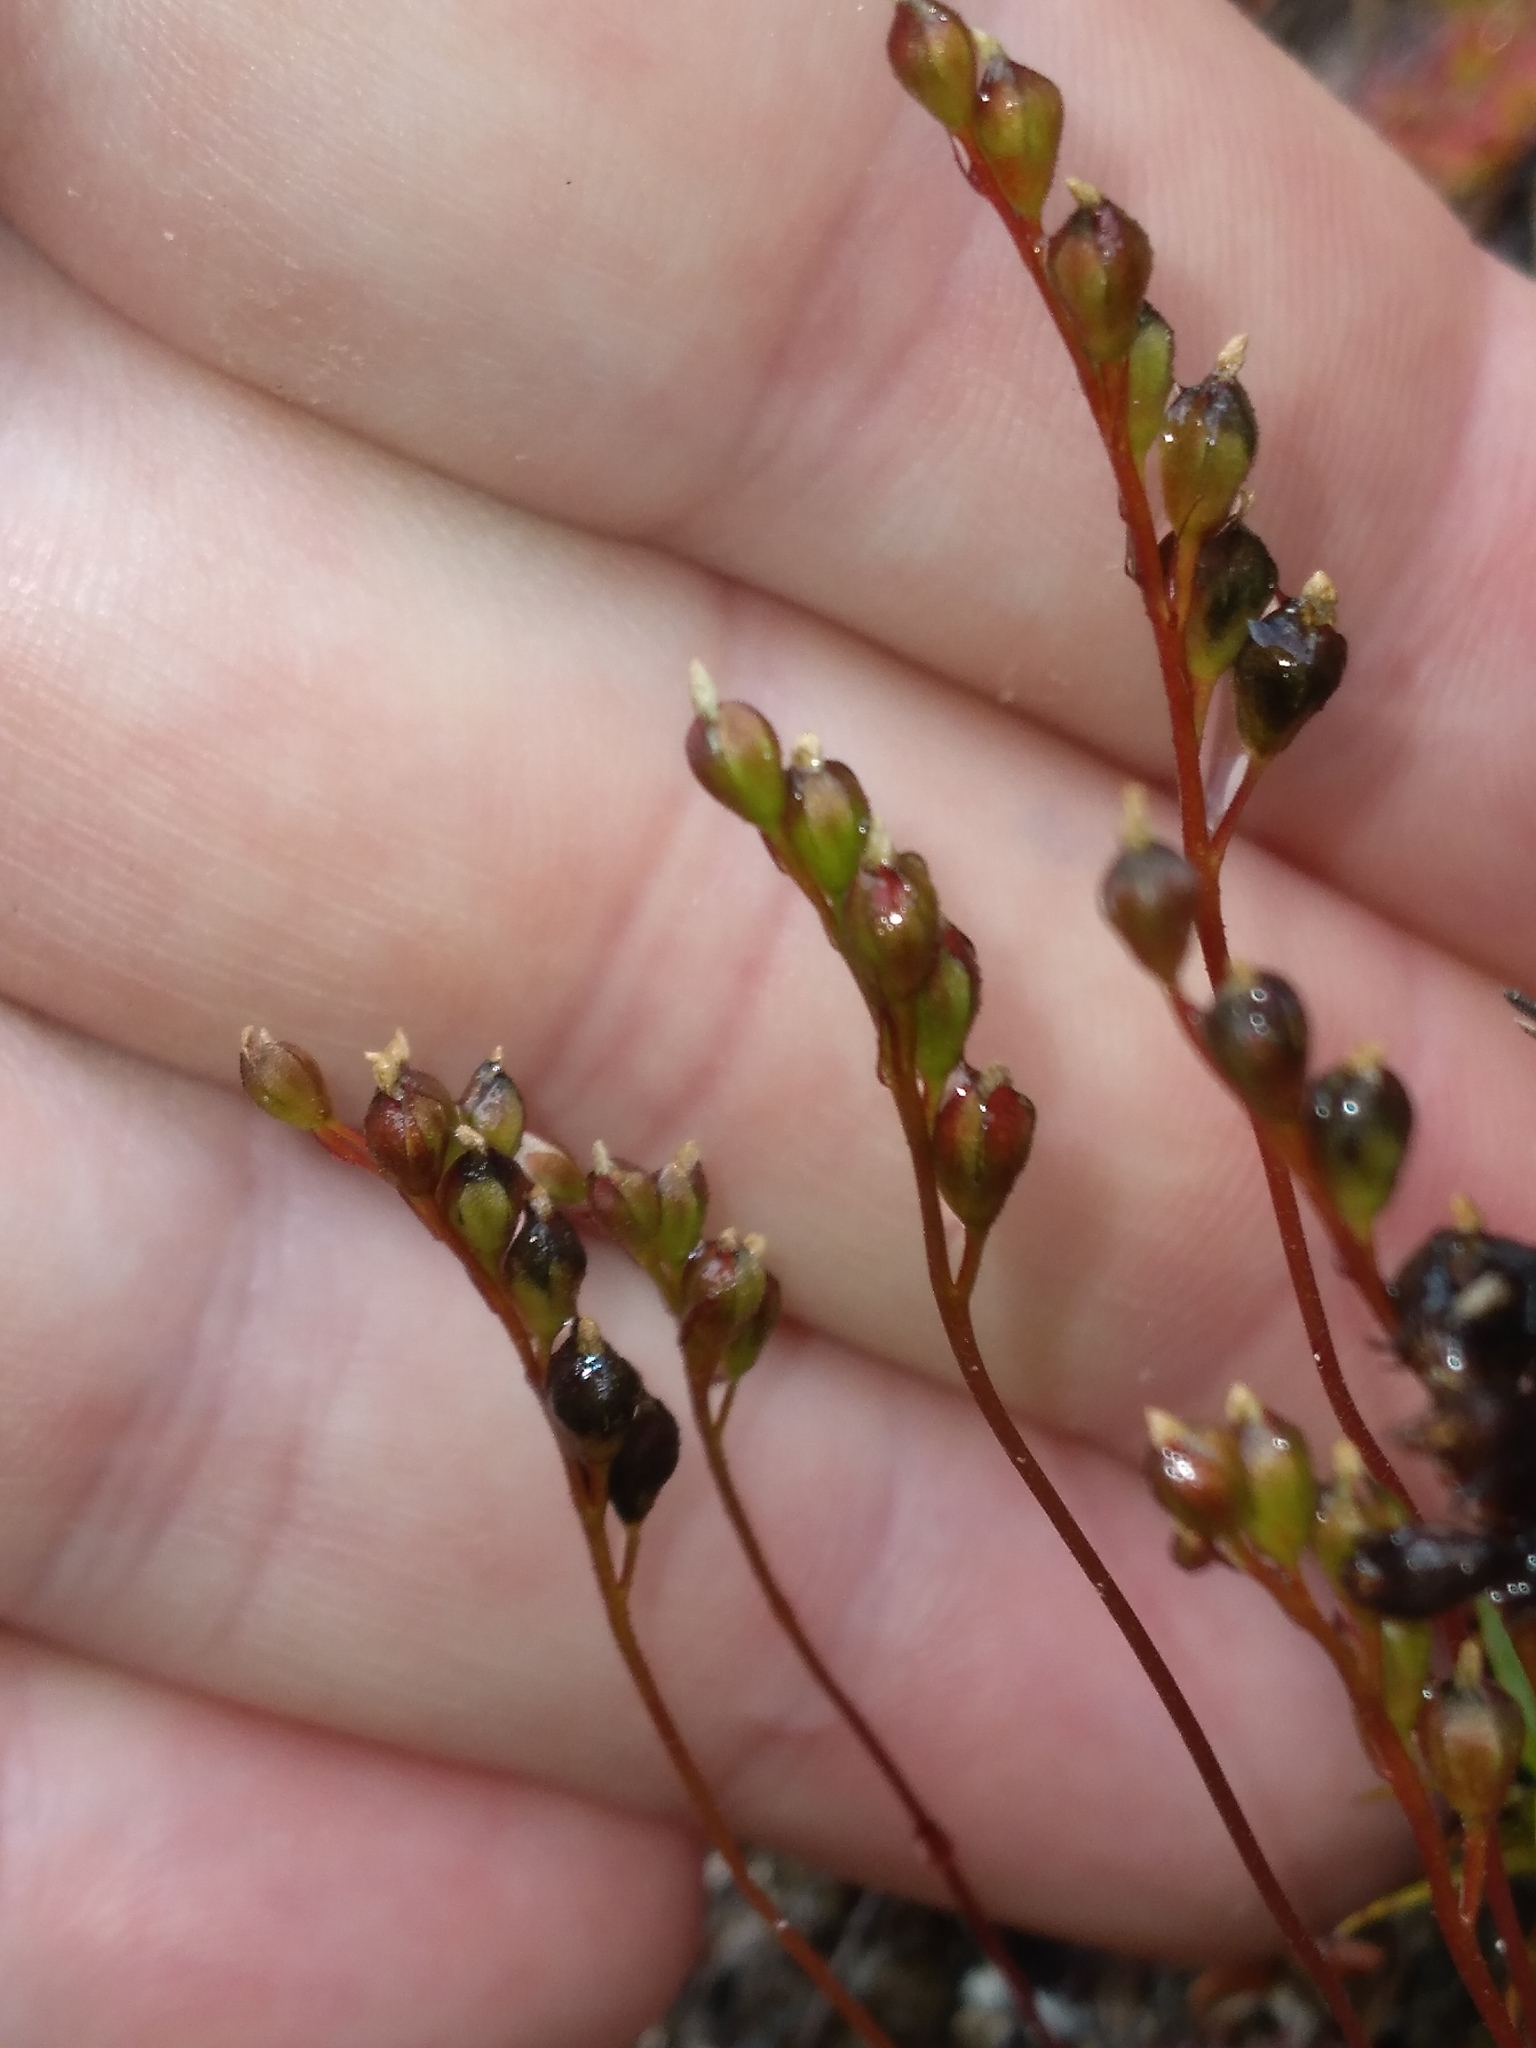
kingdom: Plantae
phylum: Tracheophyta
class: Magnoliopsida
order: Caryophyllales
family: Droseraceae
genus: Drosera
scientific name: Drosera spatulata
